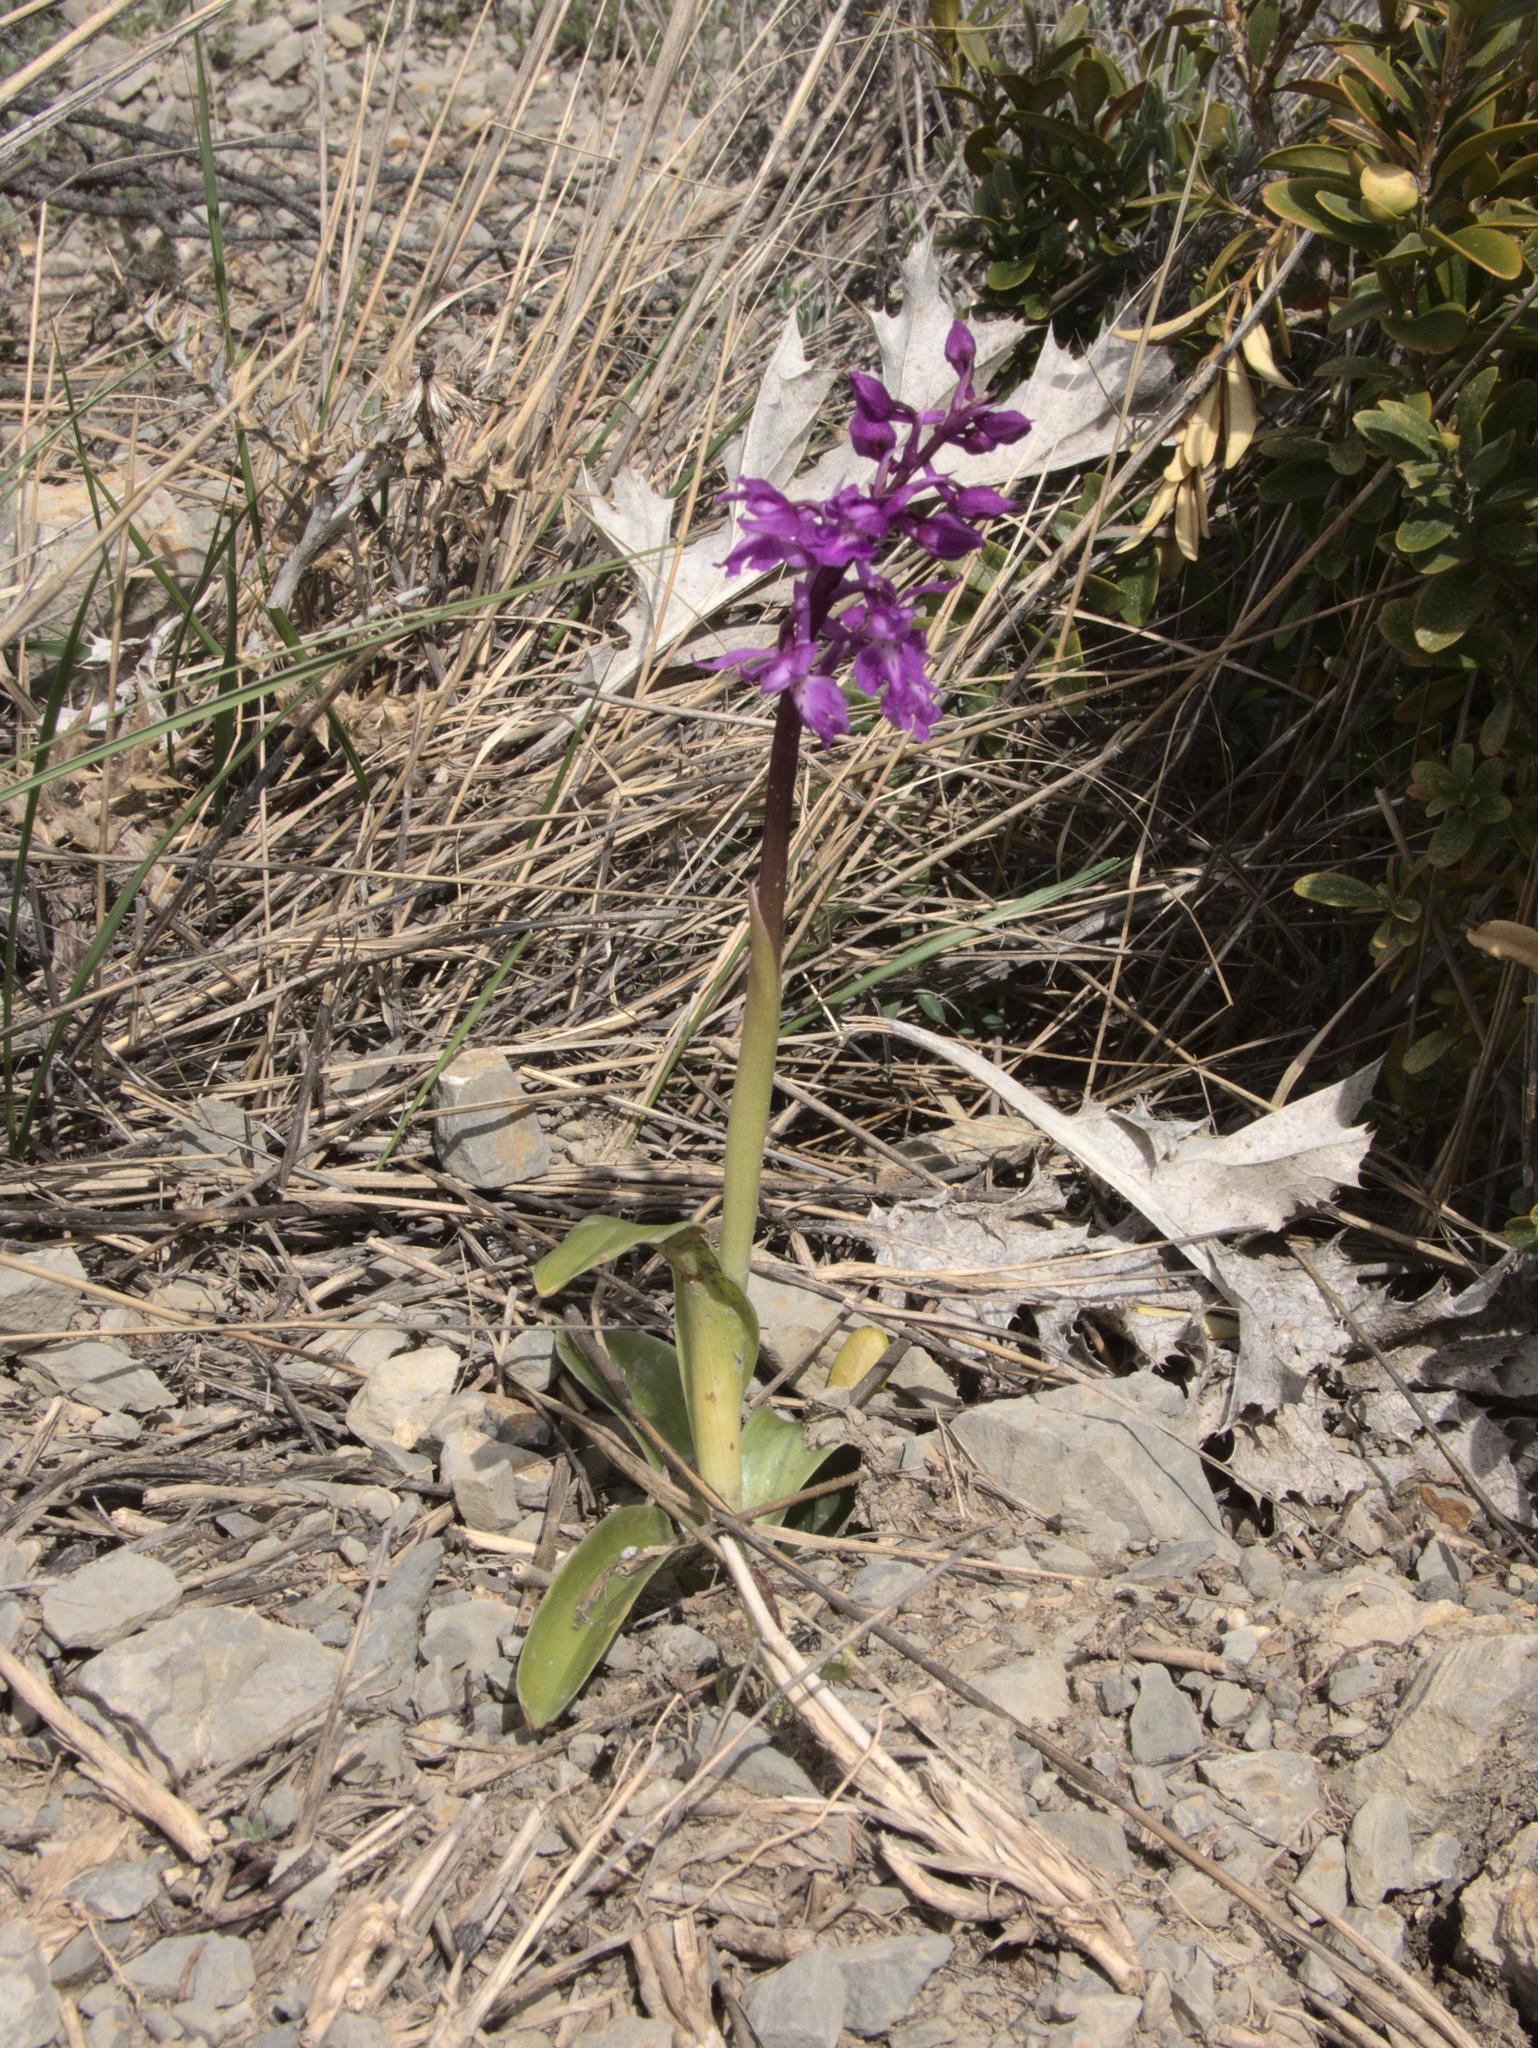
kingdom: Plantae
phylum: Tracheophyta
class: Liliopsida
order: Asparagales
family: Orchidaceae
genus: Orchis
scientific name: Orchis mascula
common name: Early-purple orchid
